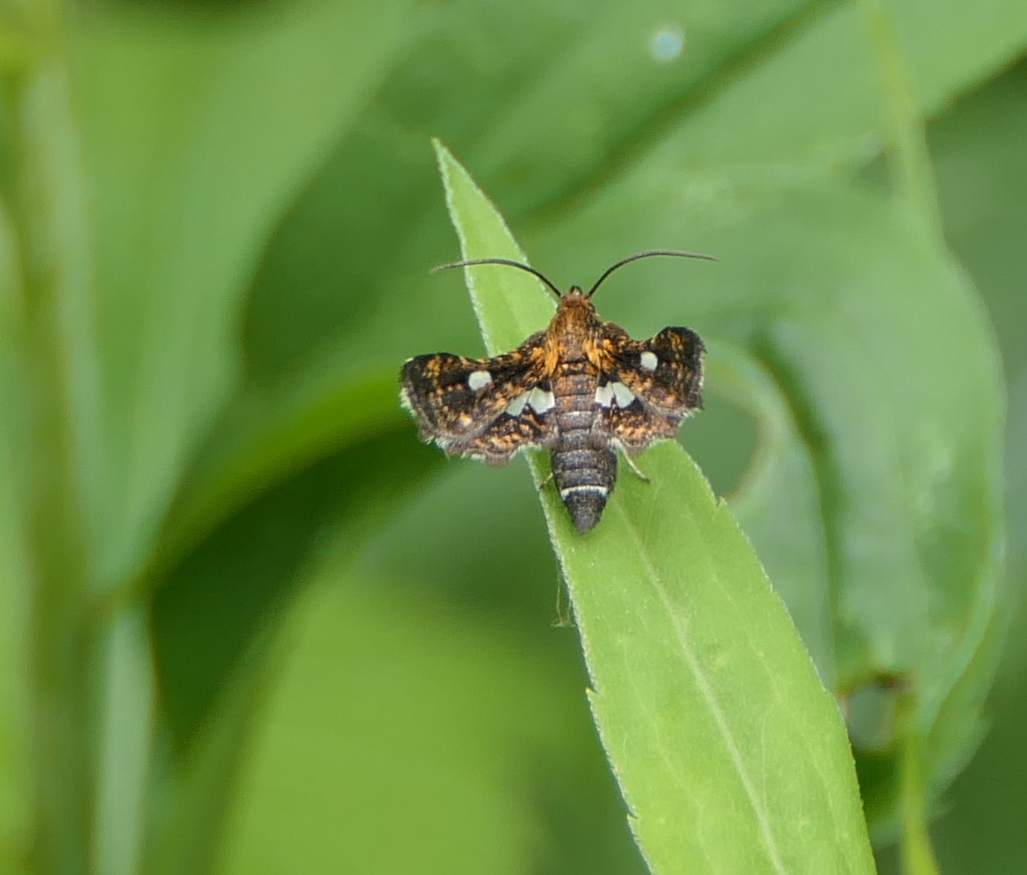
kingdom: Animalia
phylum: Arthropoda
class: Insecta
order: Lepidoptera
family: Thyrididae
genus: Thyris
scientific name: Thyris maculata
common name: Spotted thyris moth
